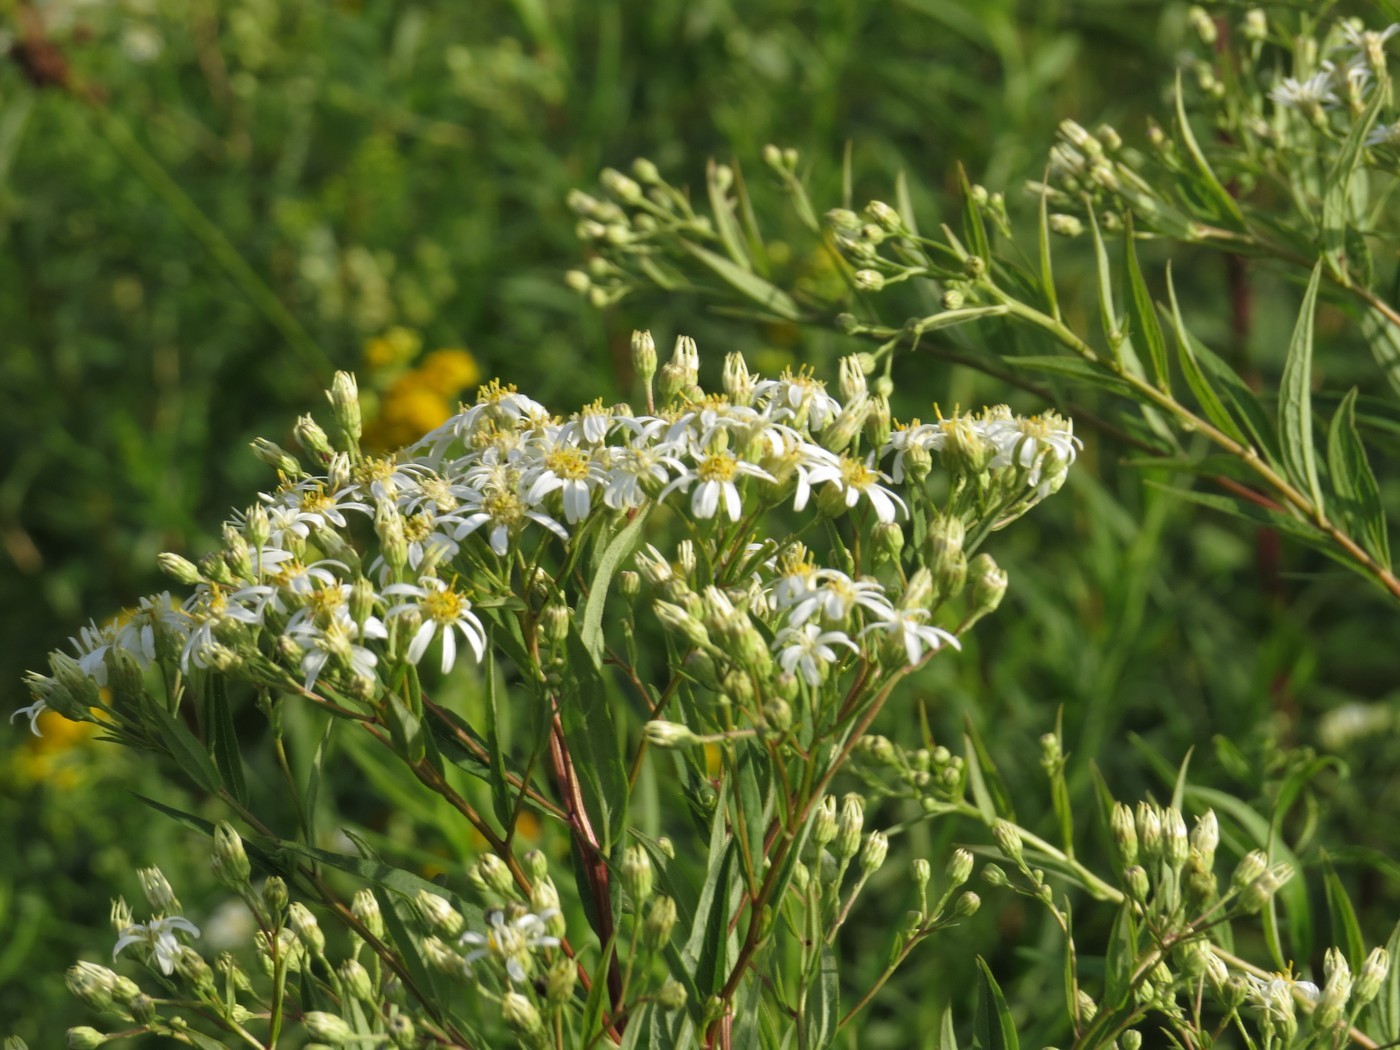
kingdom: Plantae
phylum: Tracheophyta
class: Magnoliopsida
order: Asterales
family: Asteraceae
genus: Doellingeria
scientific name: Doellingeria umbellata
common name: Flat-top white aster
